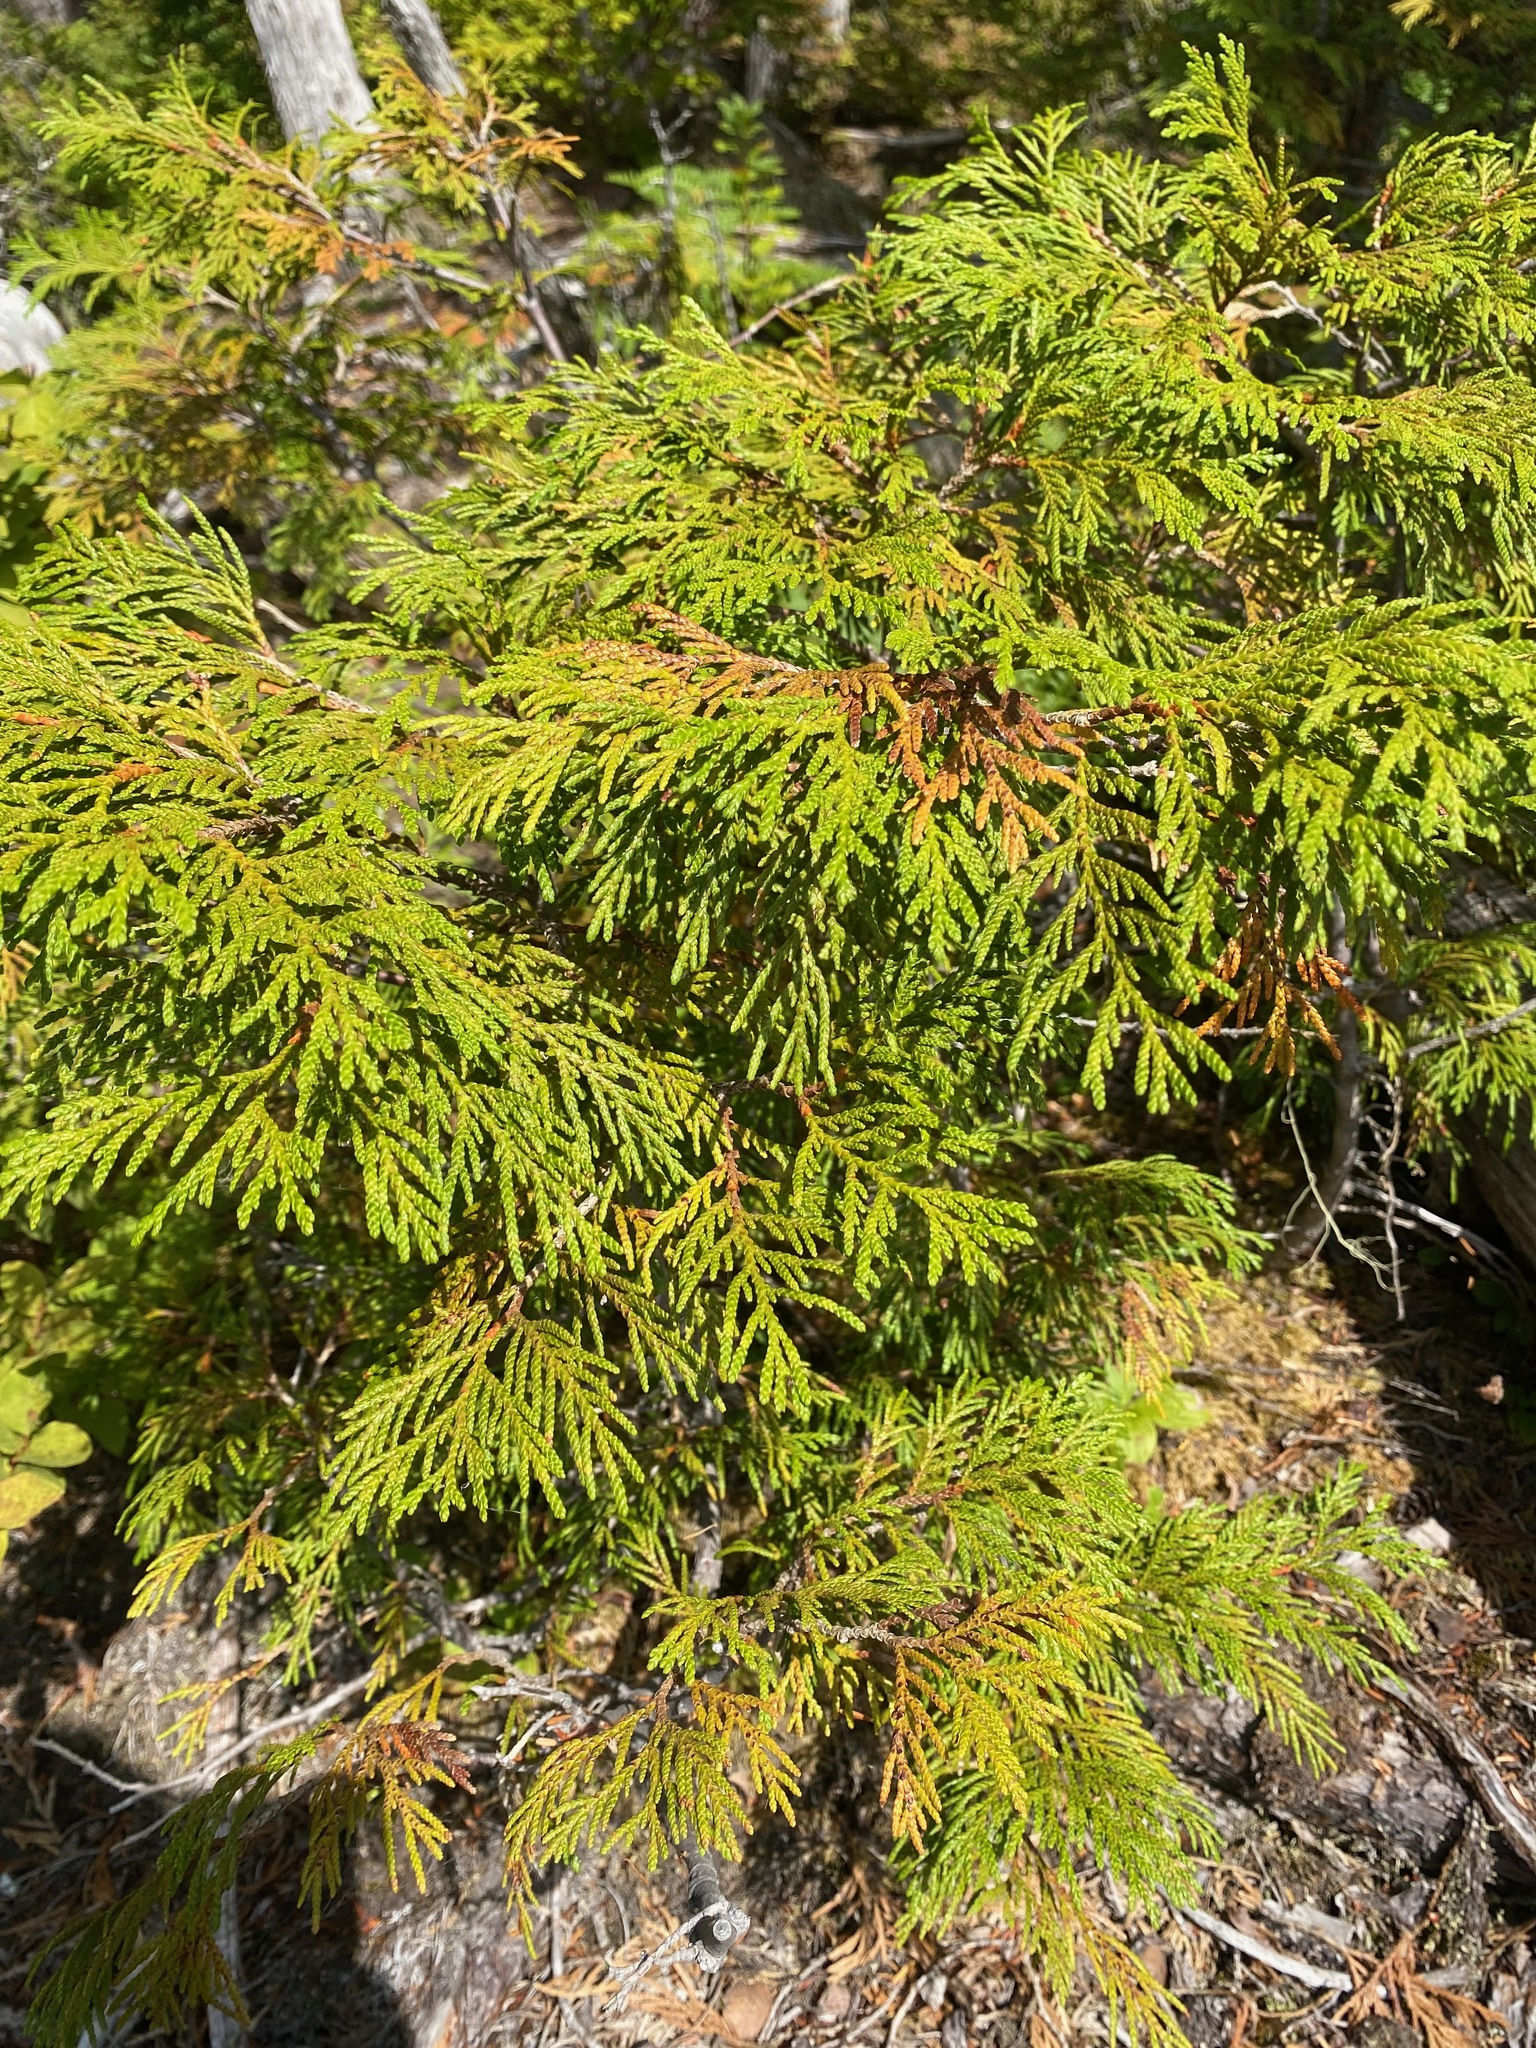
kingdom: Plantae
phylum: Tracheophyta
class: Pinopsida
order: Pinales
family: Cupressaceae
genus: Thuja
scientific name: Thuja plicata
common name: Western red-cedar
